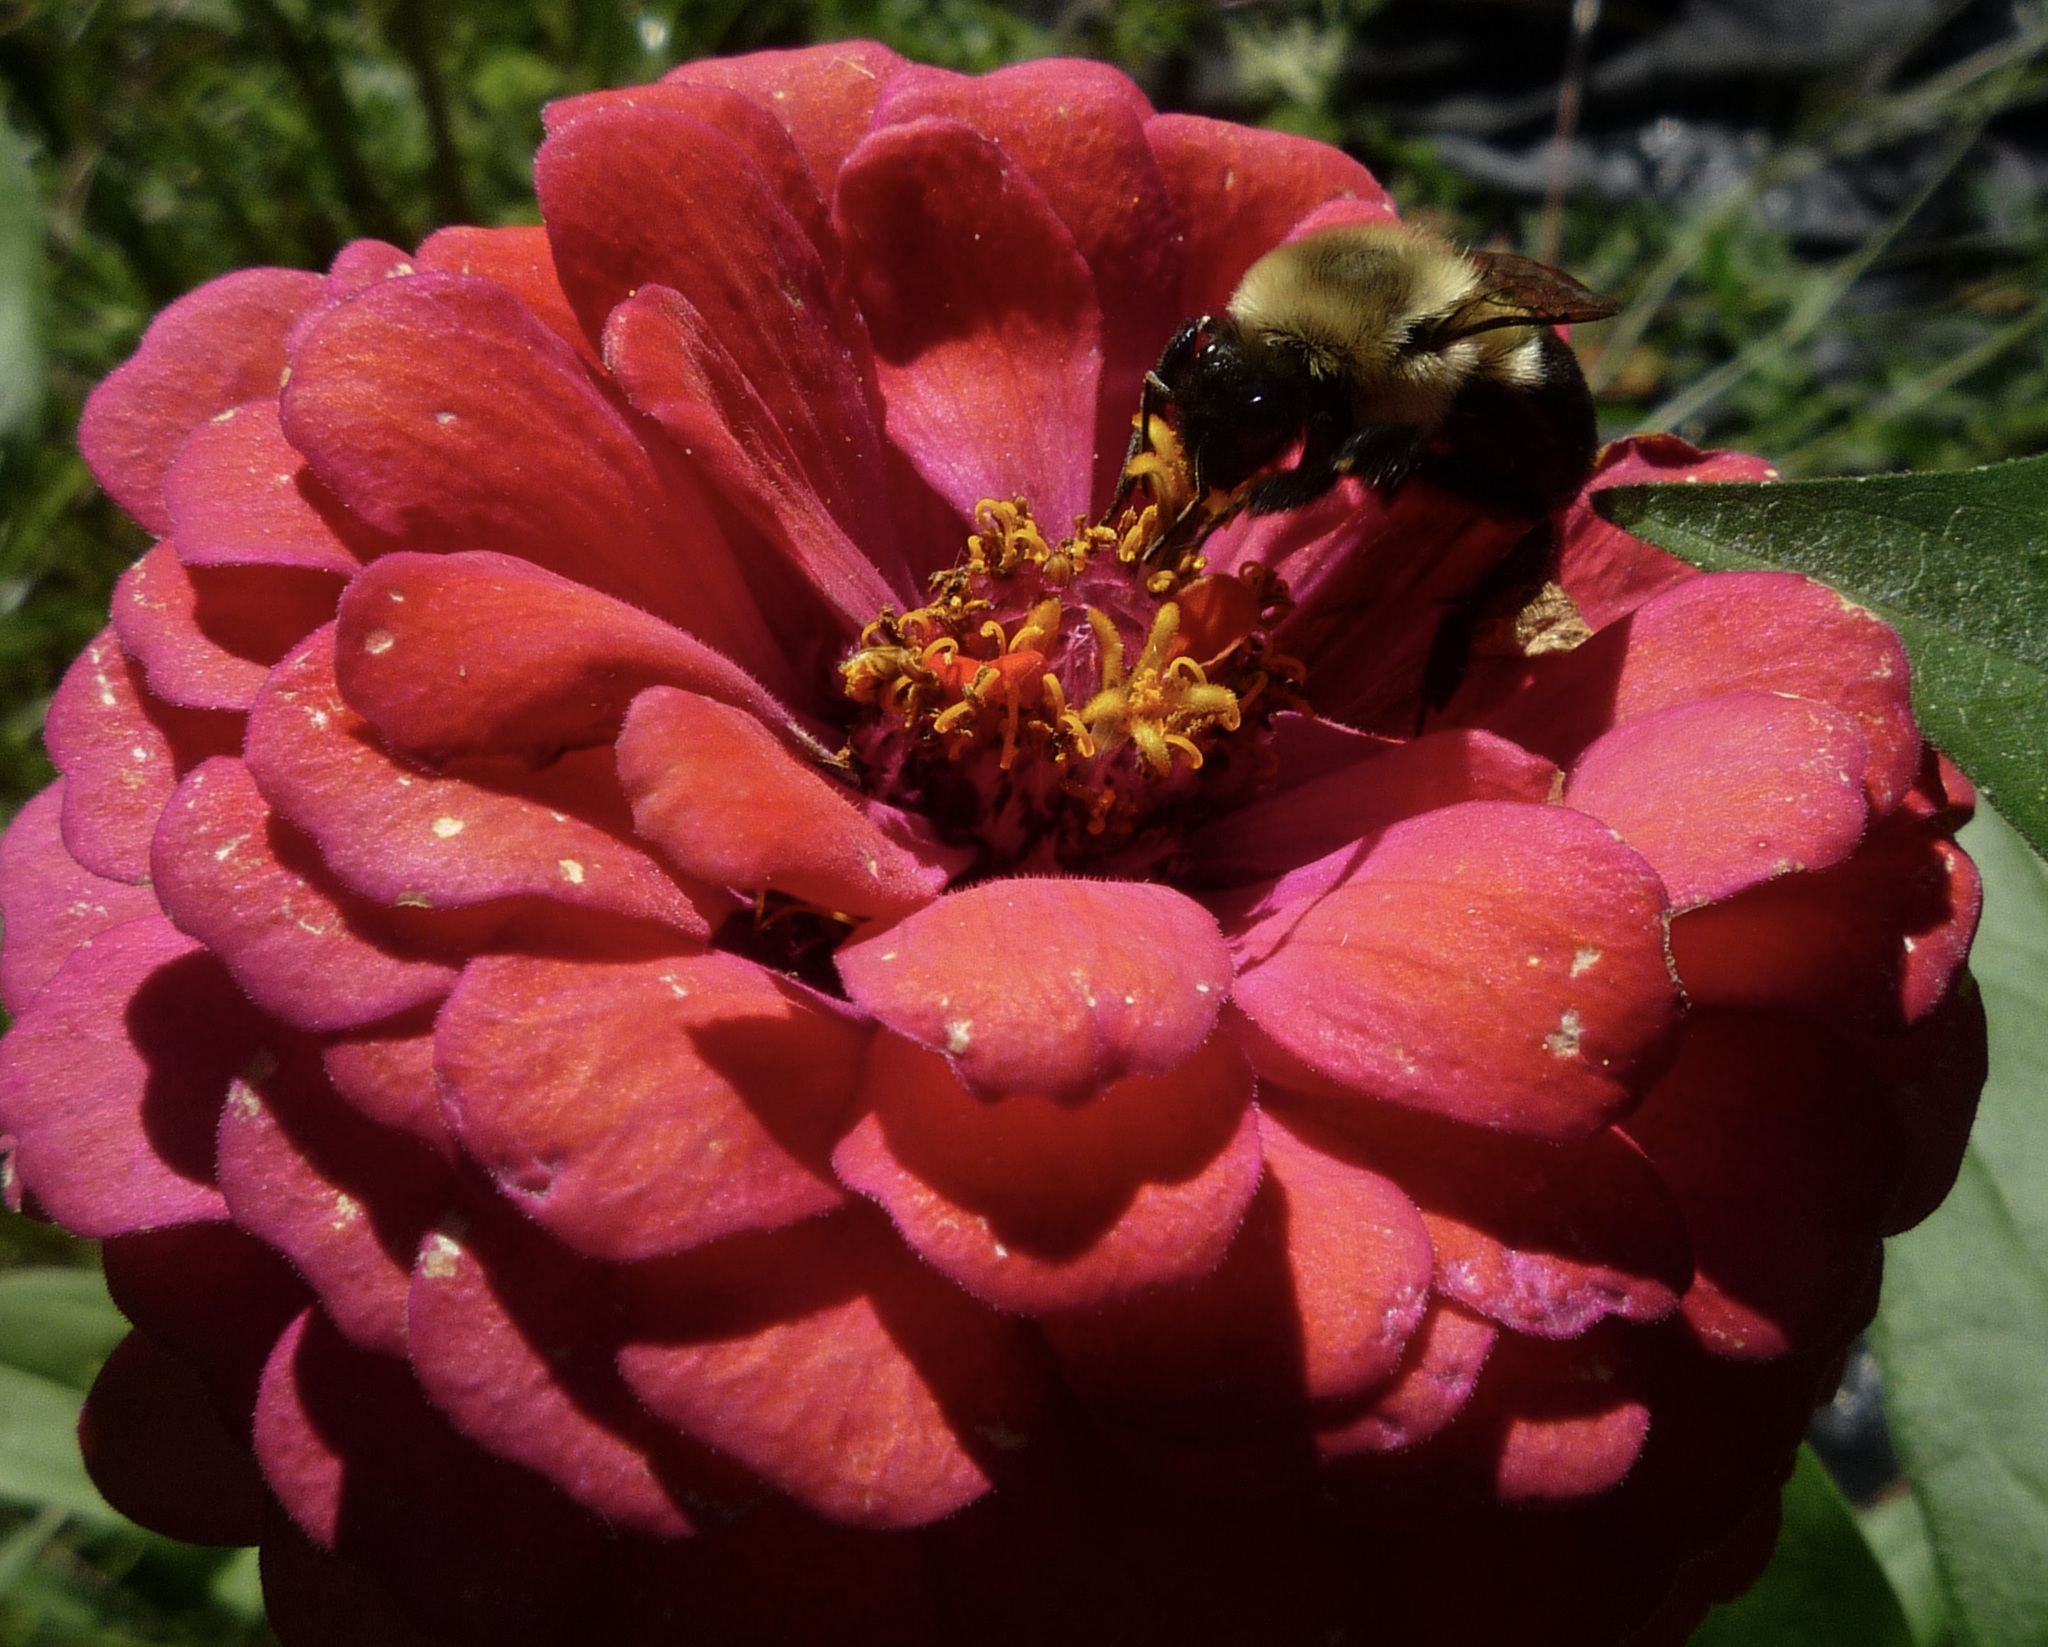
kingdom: Animalia
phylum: Arthropoda
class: Insecta
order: Hymenoptera
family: Apidae
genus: Bombus
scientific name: Bombus impatiens
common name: Common eastern bumble bee
